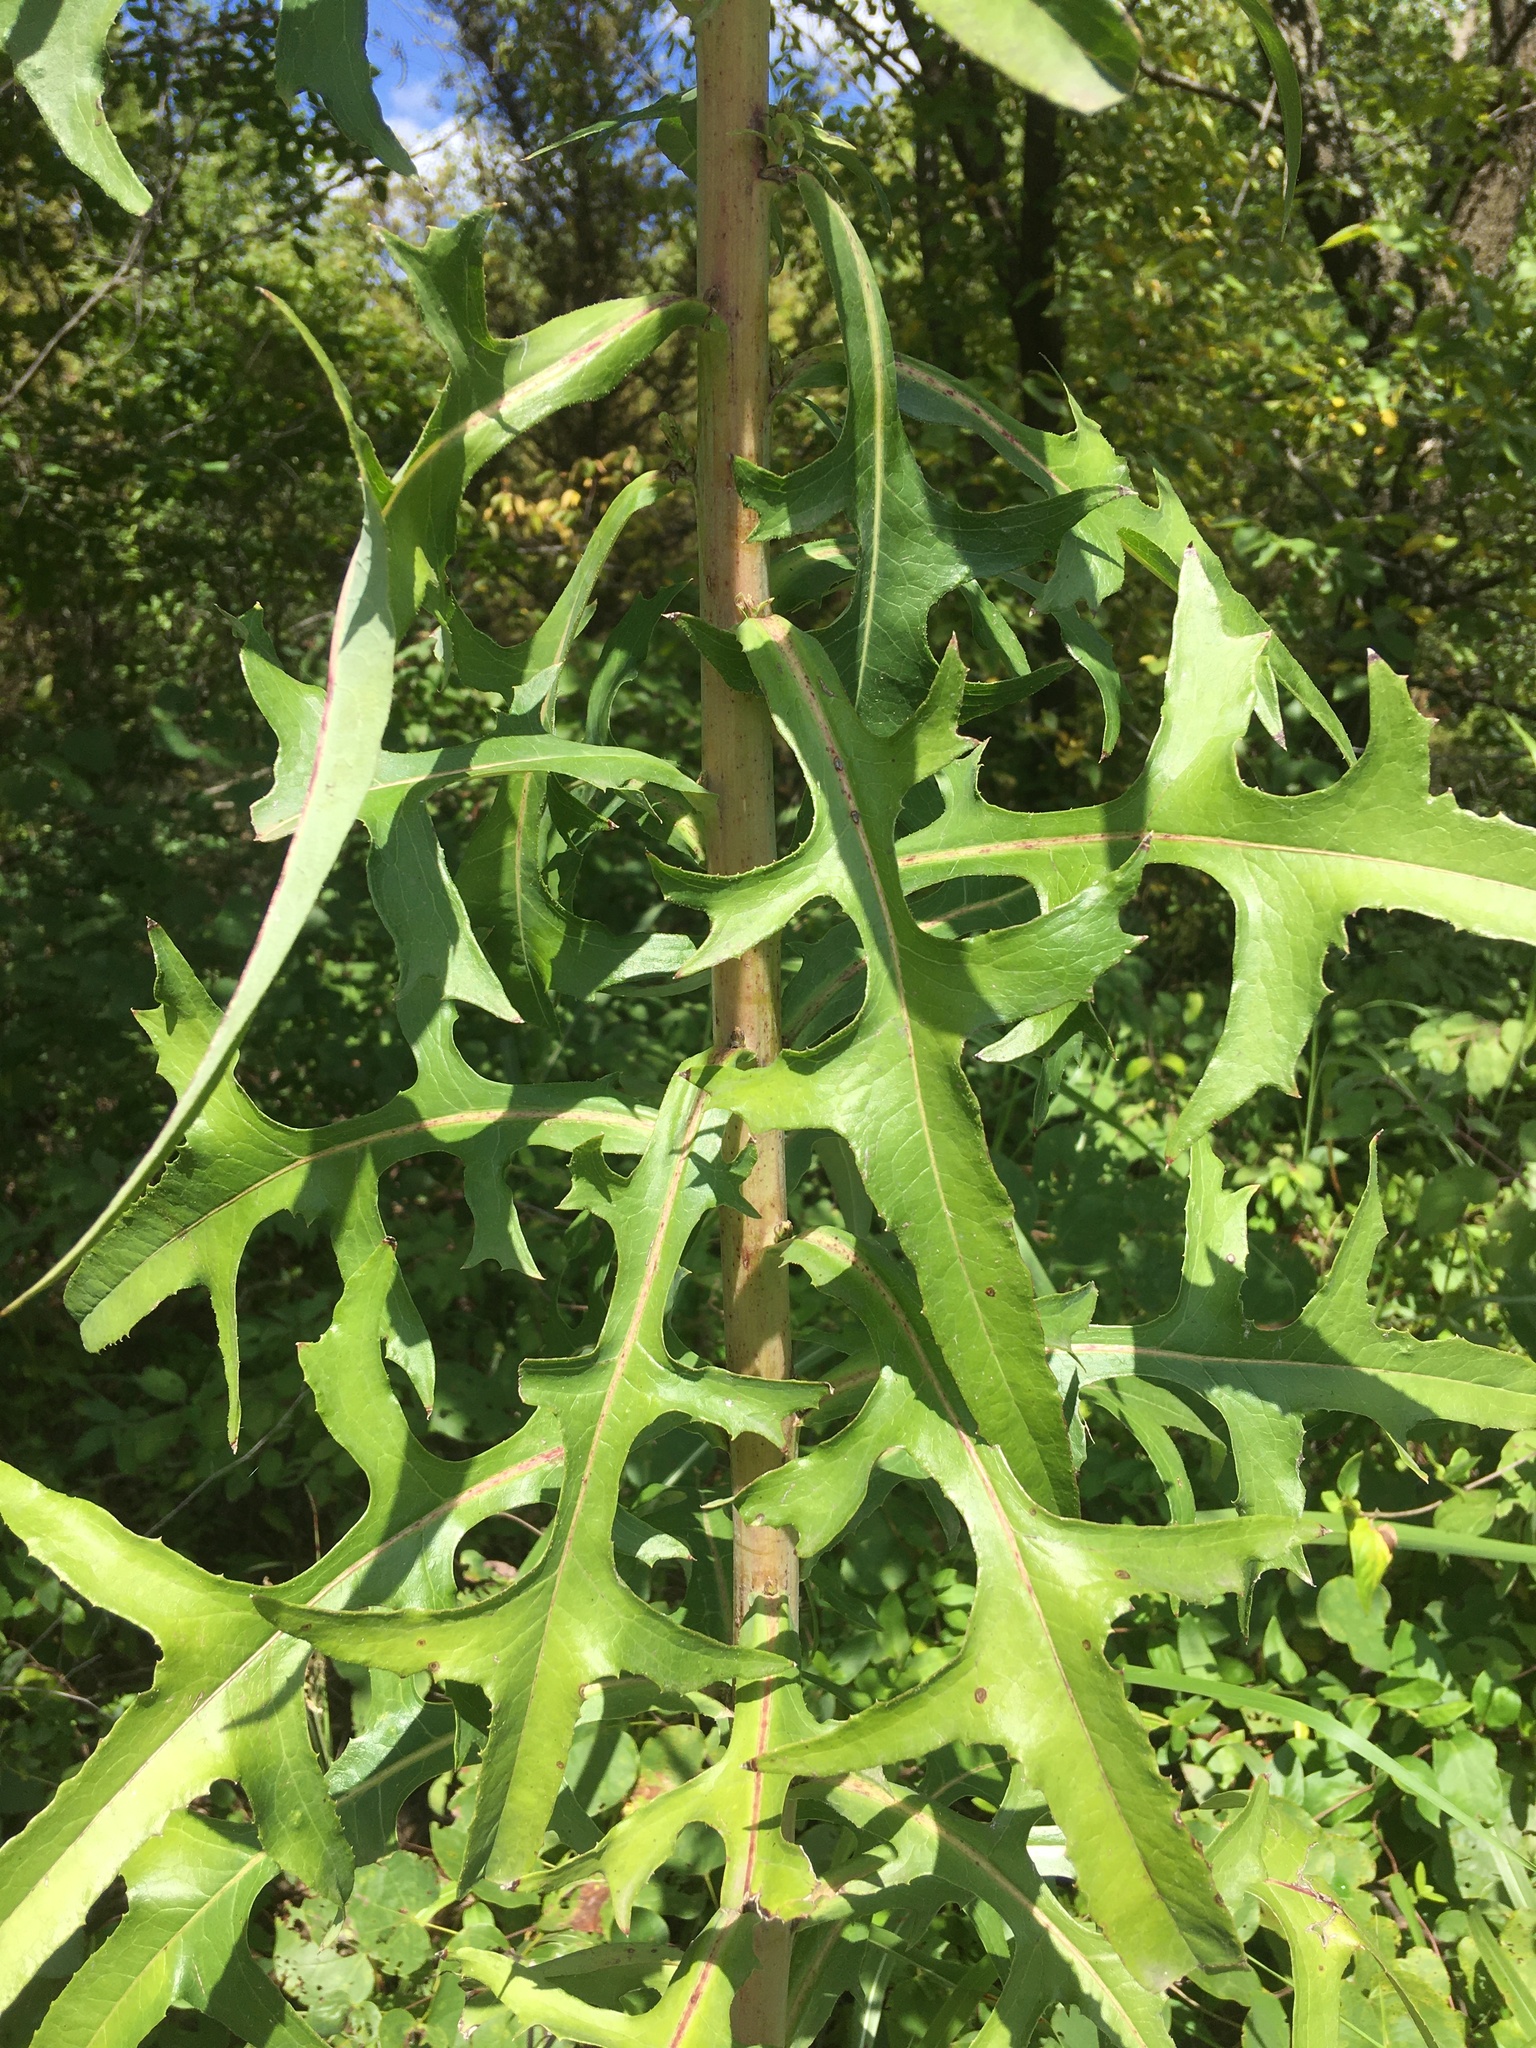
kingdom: Plantae
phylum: Tracheophyta
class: Magnoliopsida
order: Asterales
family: Asteraceae
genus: Lactuca
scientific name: Lactuca canadensis
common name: Canada lettuce
